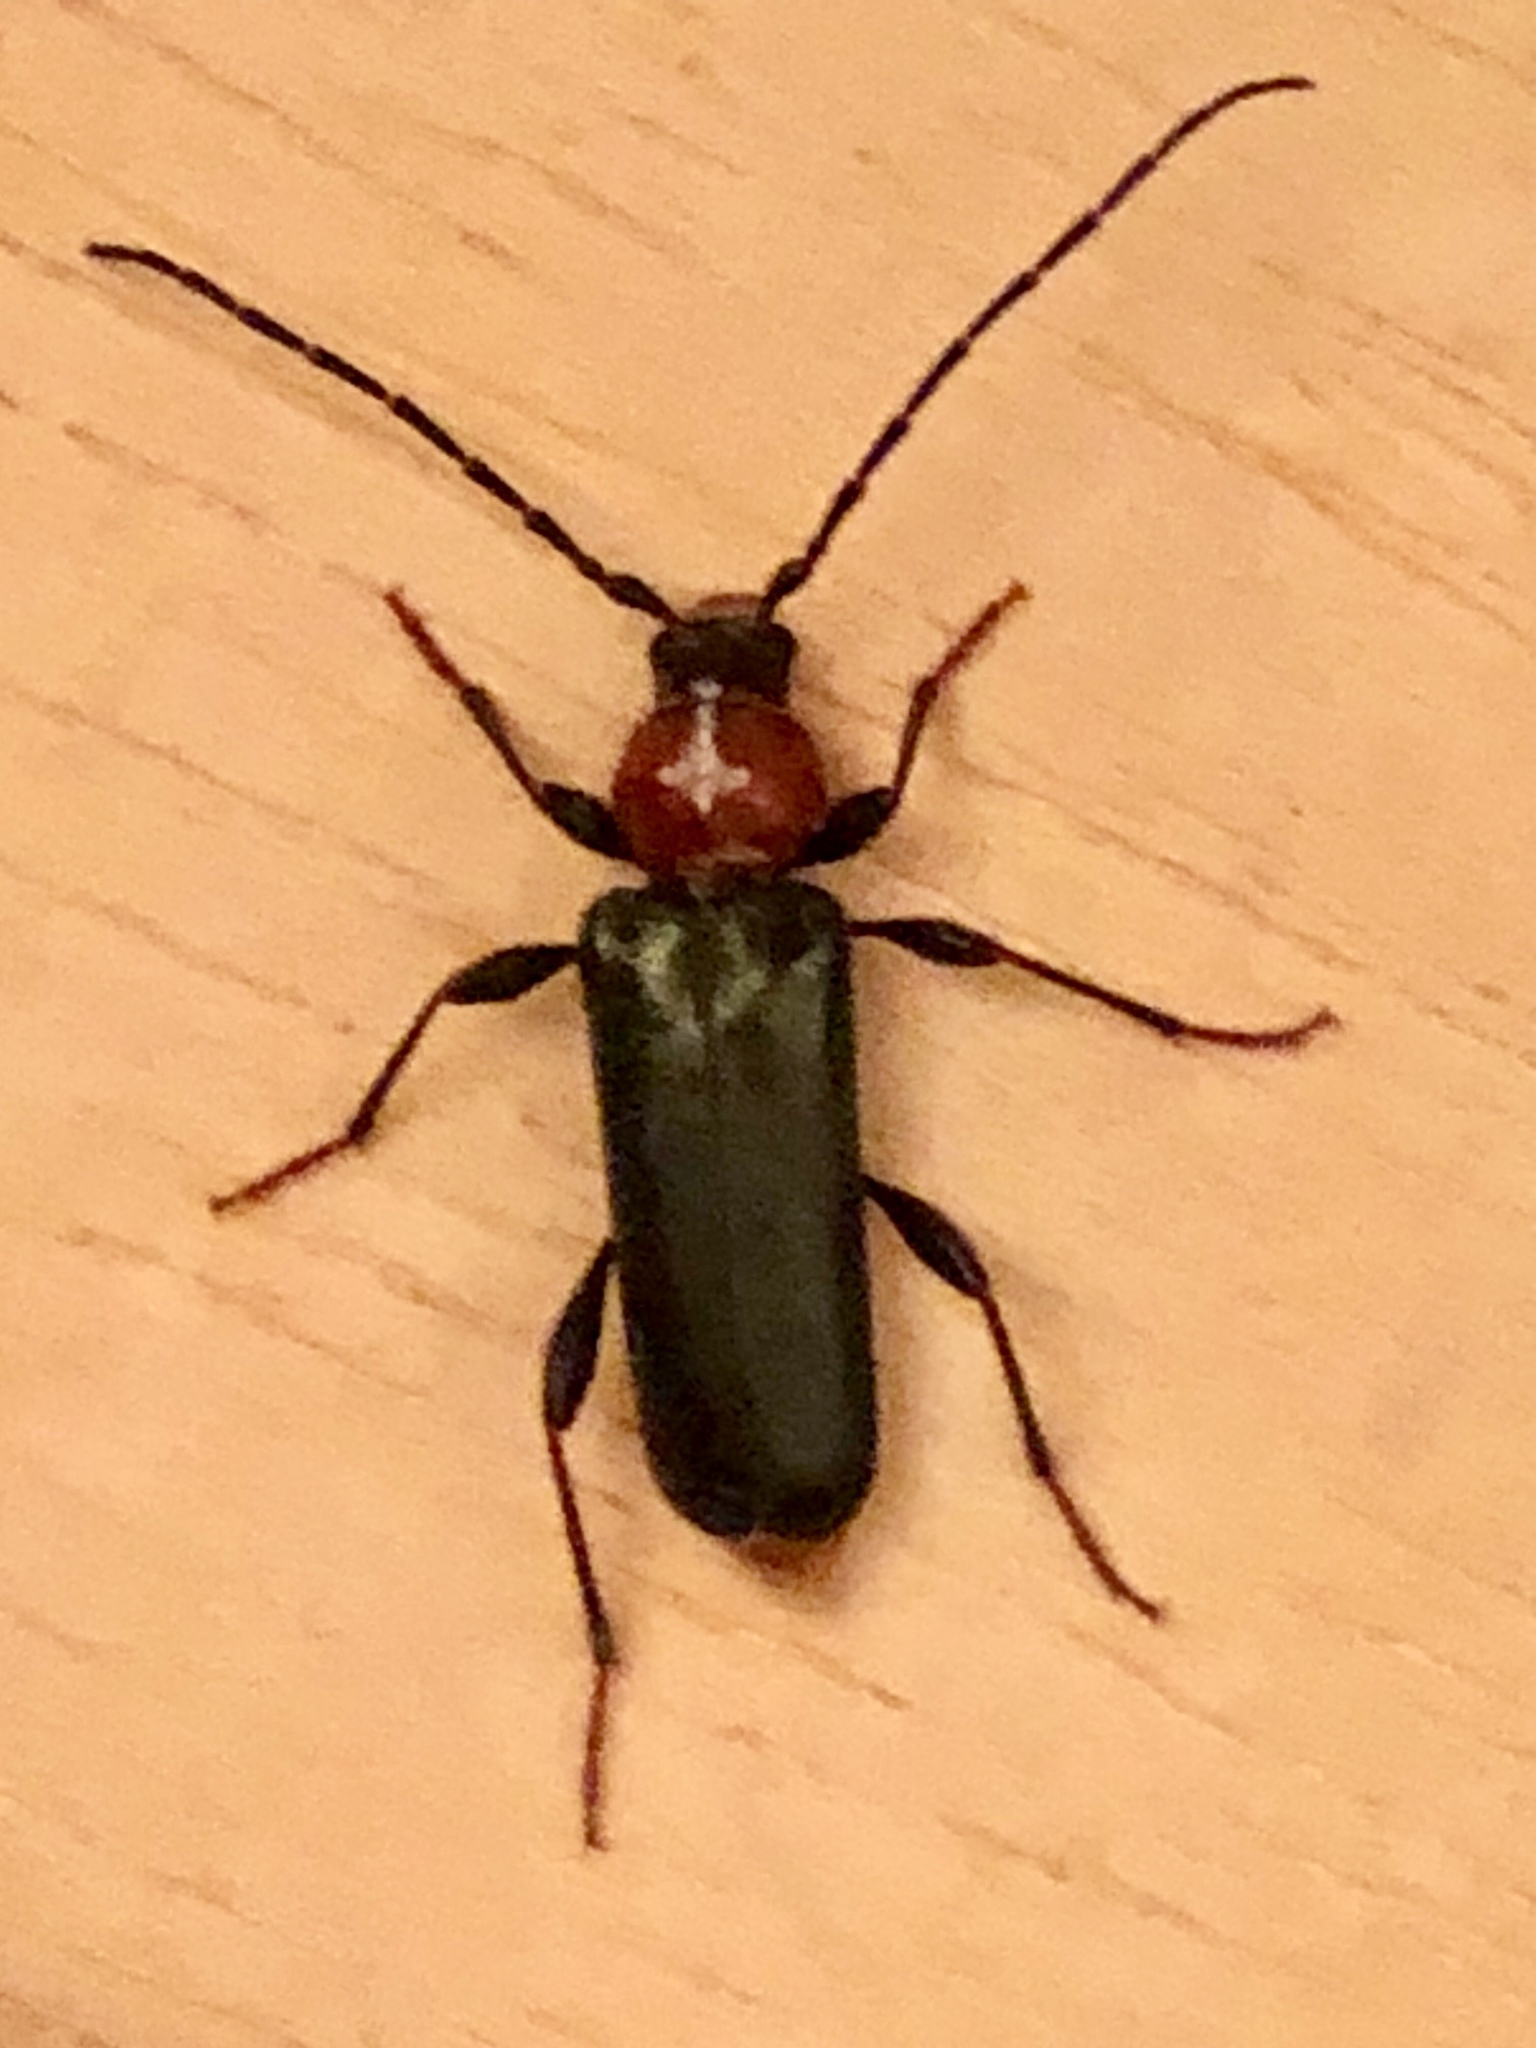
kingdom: Animalia
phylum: Arthropoda
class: Insecta
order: Coleoptera
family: Cerambycidae
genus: Phymatodes
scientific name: Phymatodes testaceus
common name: Long-horned beetle
